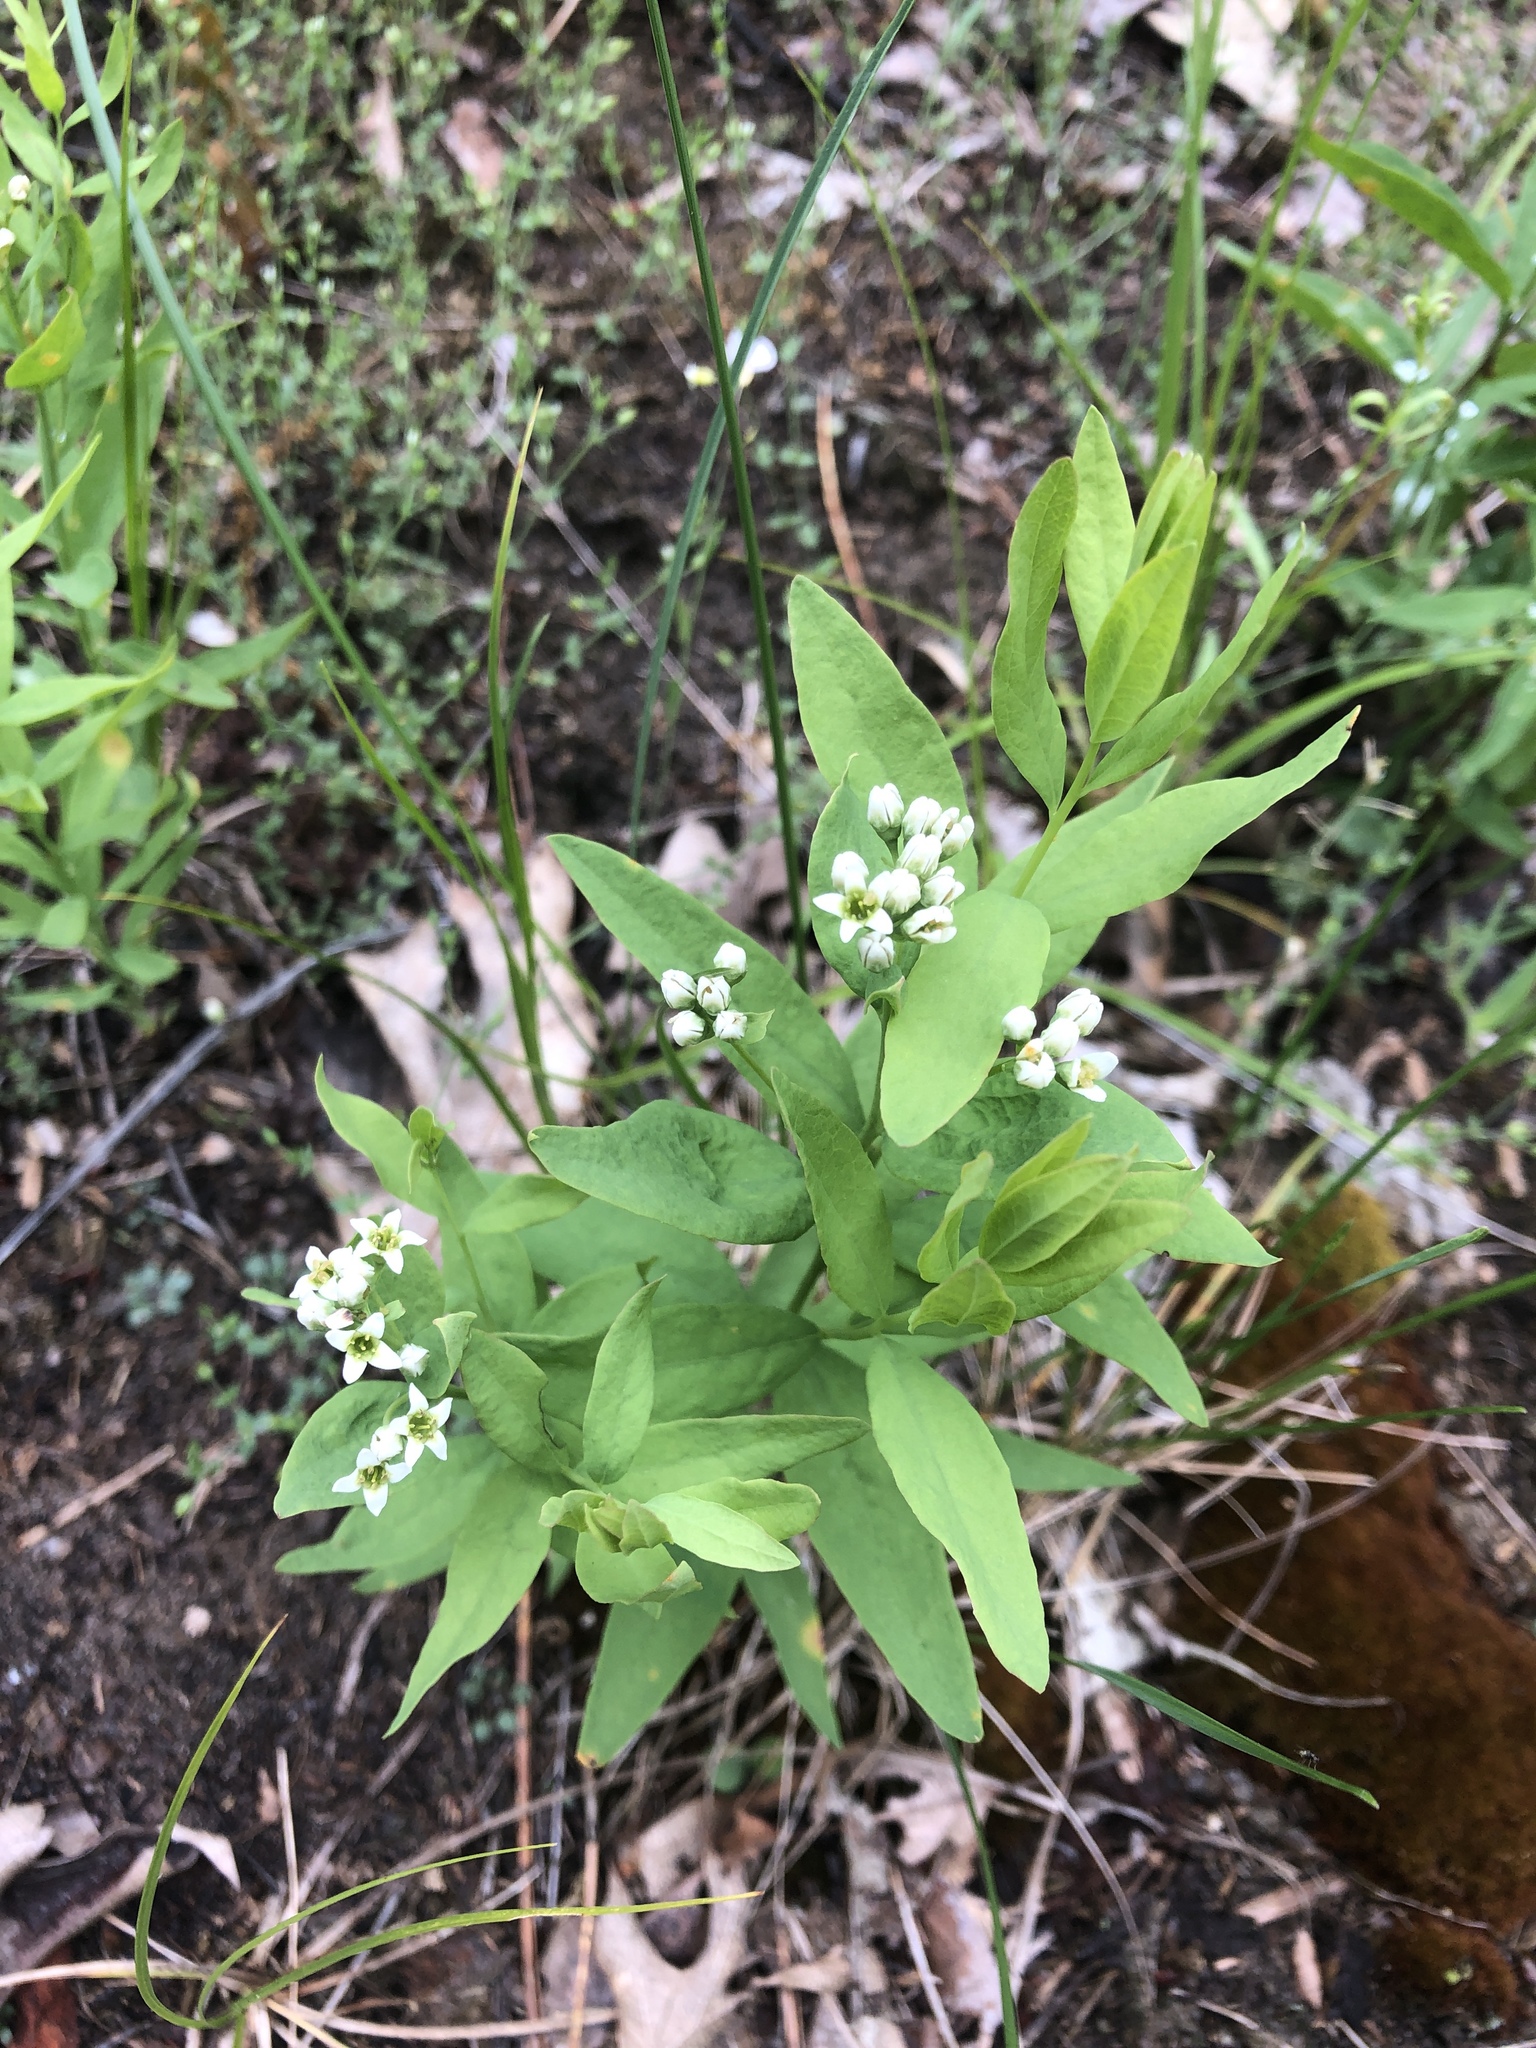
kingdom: Plantae
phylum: Tracheophyta
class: Magnoliopsida
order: Santalales
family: Comandraceae
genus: Comandra
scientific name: Comandra umbellata
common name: Bastard toadflax
